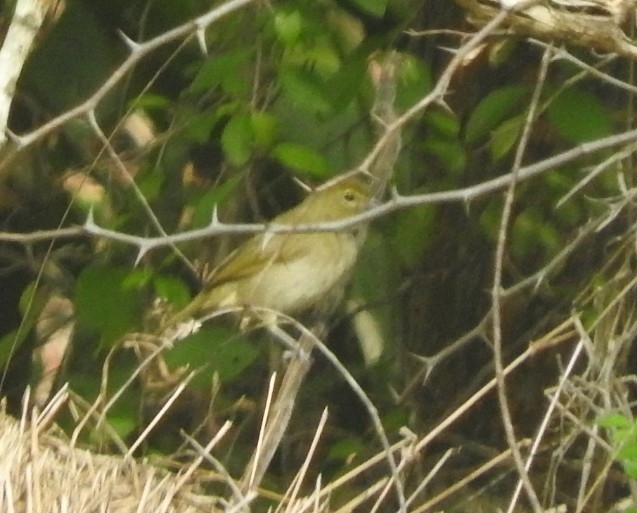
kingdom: Animalia
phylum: Chordata
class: Aves
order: Passeriformes
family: Thraupidae
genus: Tiaris
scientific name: Tiaris olivaceus
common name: Yellow-faced grassquit
